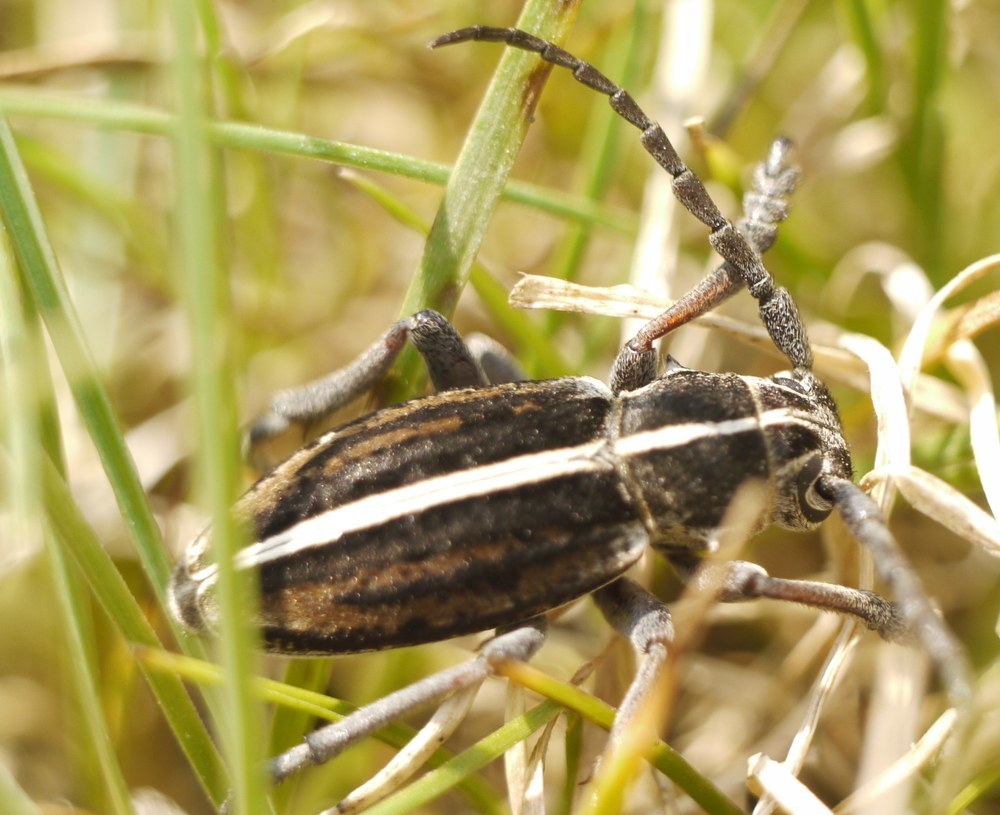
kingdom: Animalia
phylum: Arthropoda
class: Insecta
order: Coleoptera
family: Cerambycidae
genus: Dorcadion
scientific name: Dorcadion holosericeum
